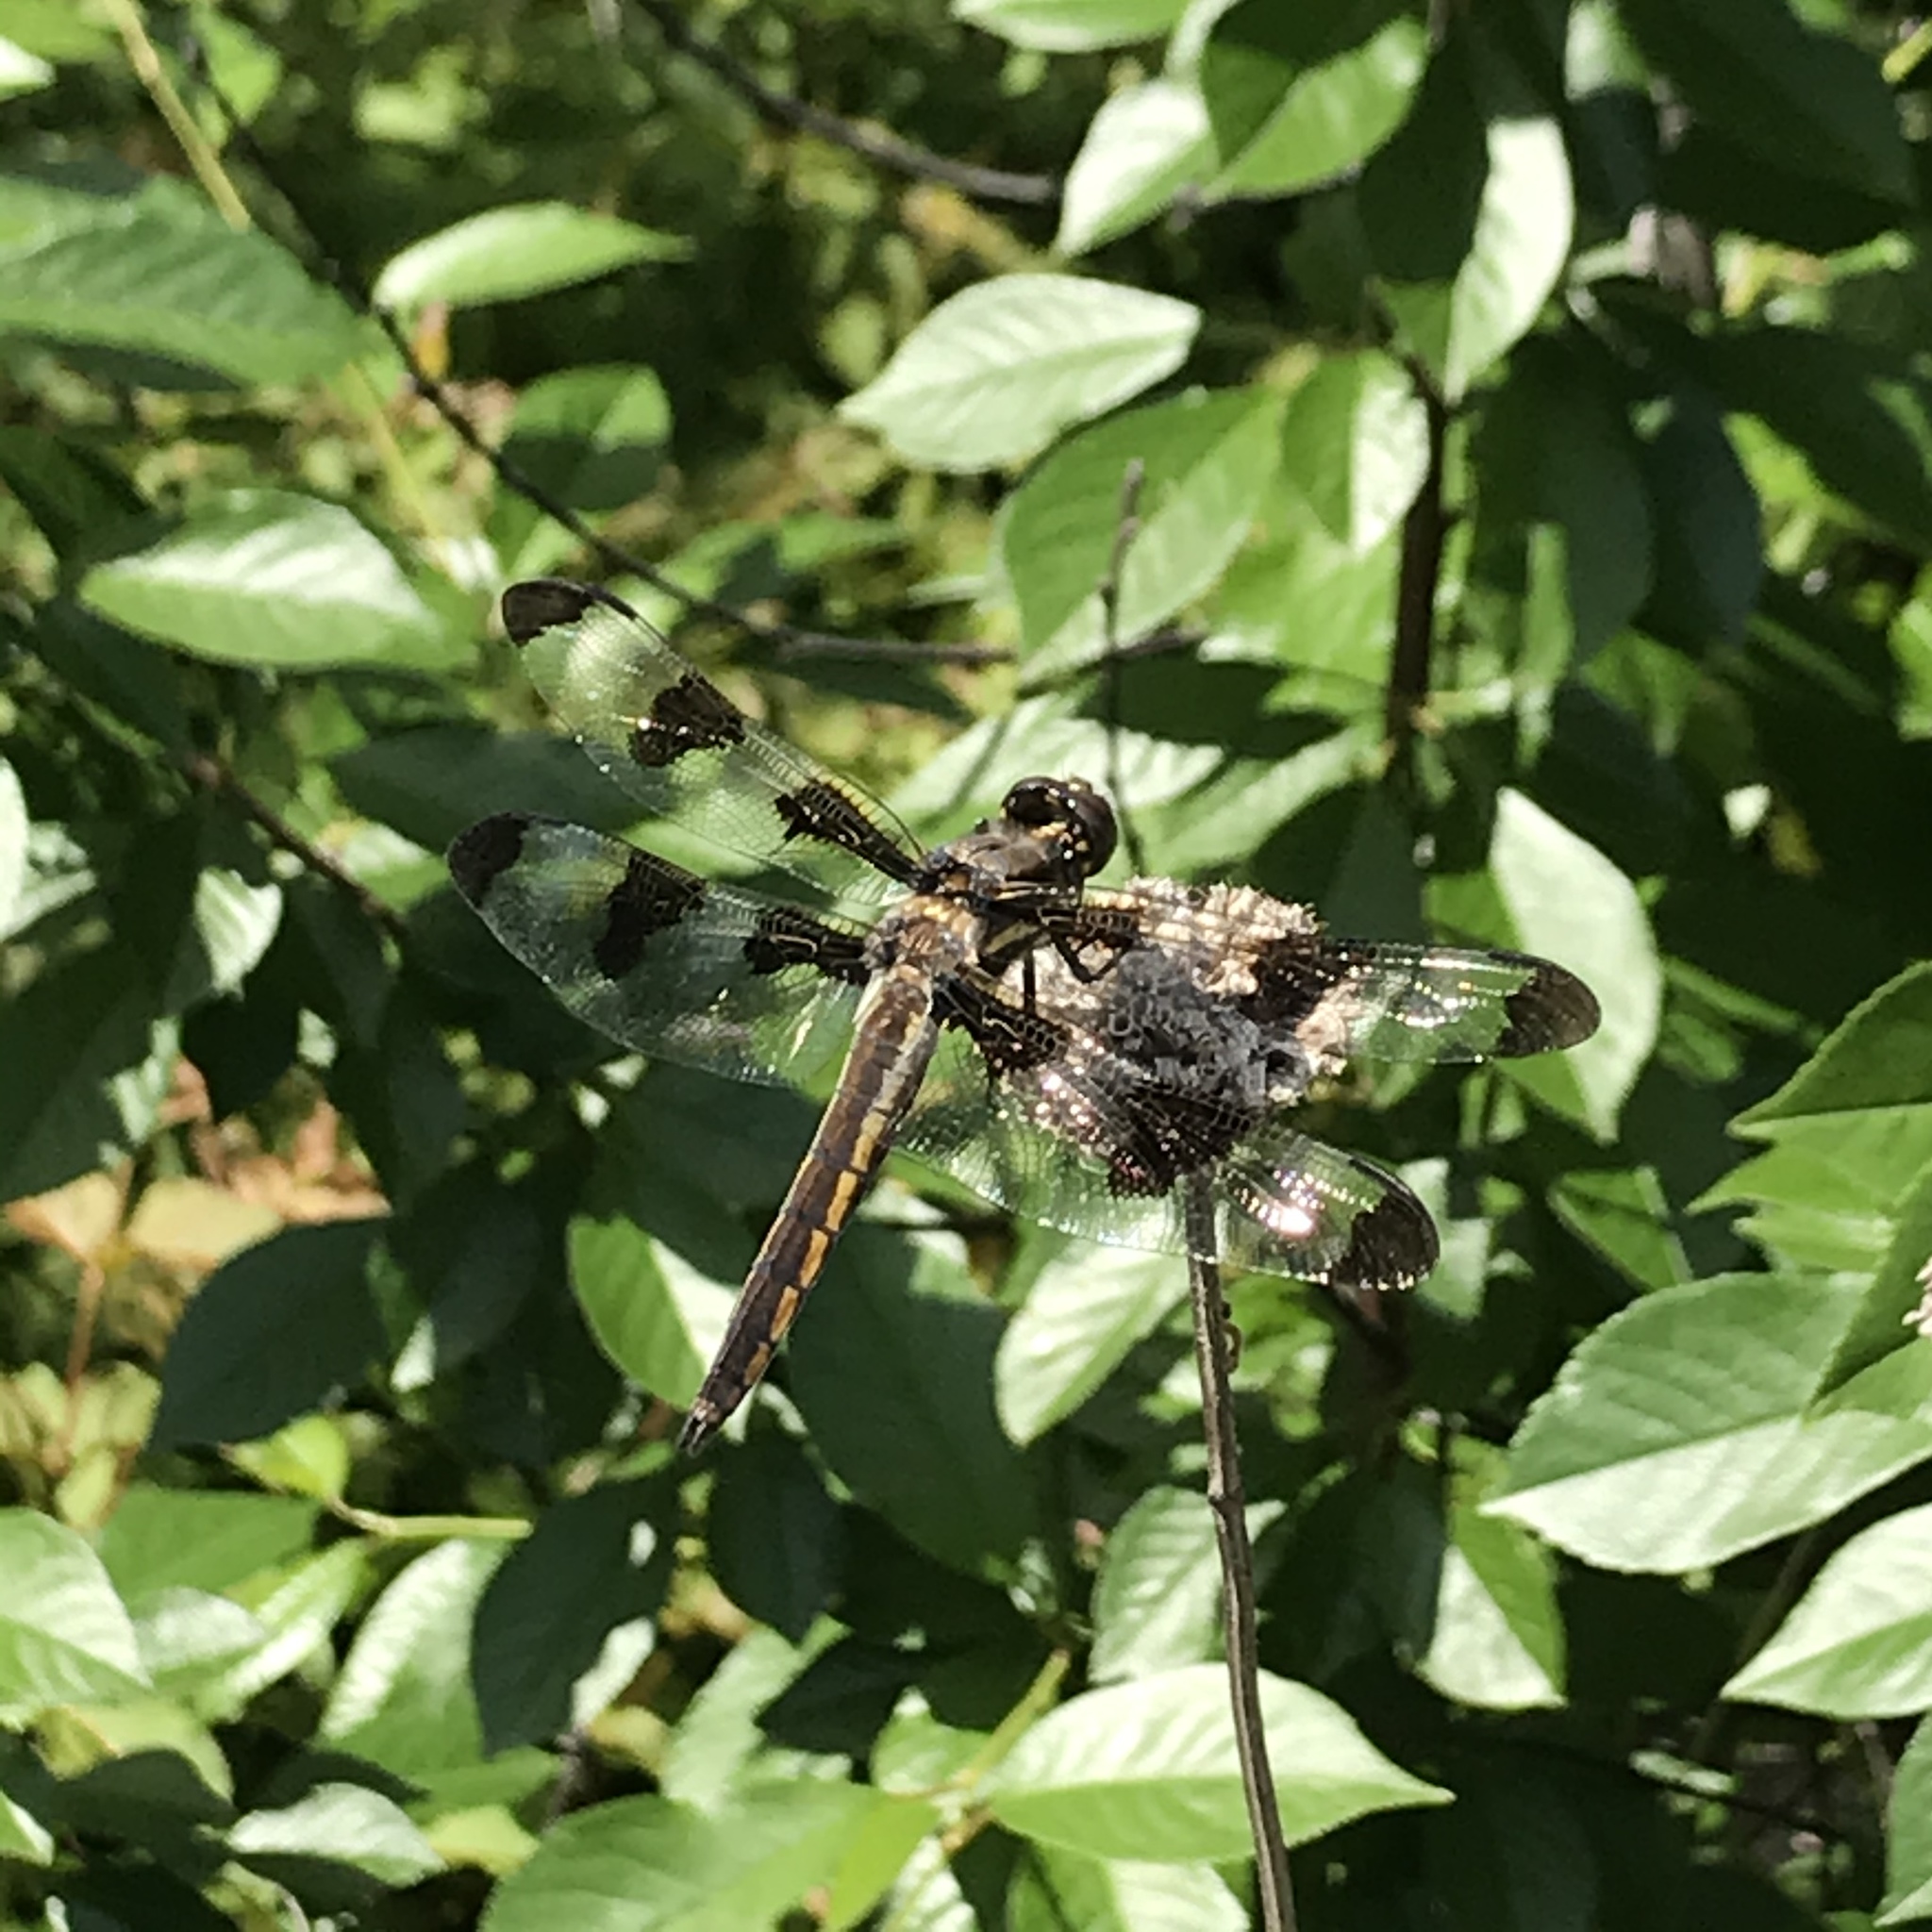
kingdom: Animalia
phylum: Arthropoda
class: Insecta
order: Odonata
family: Libellulidae
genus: Libellula
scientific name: Libellula pulchella
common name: Twelve-spotted skimmer
